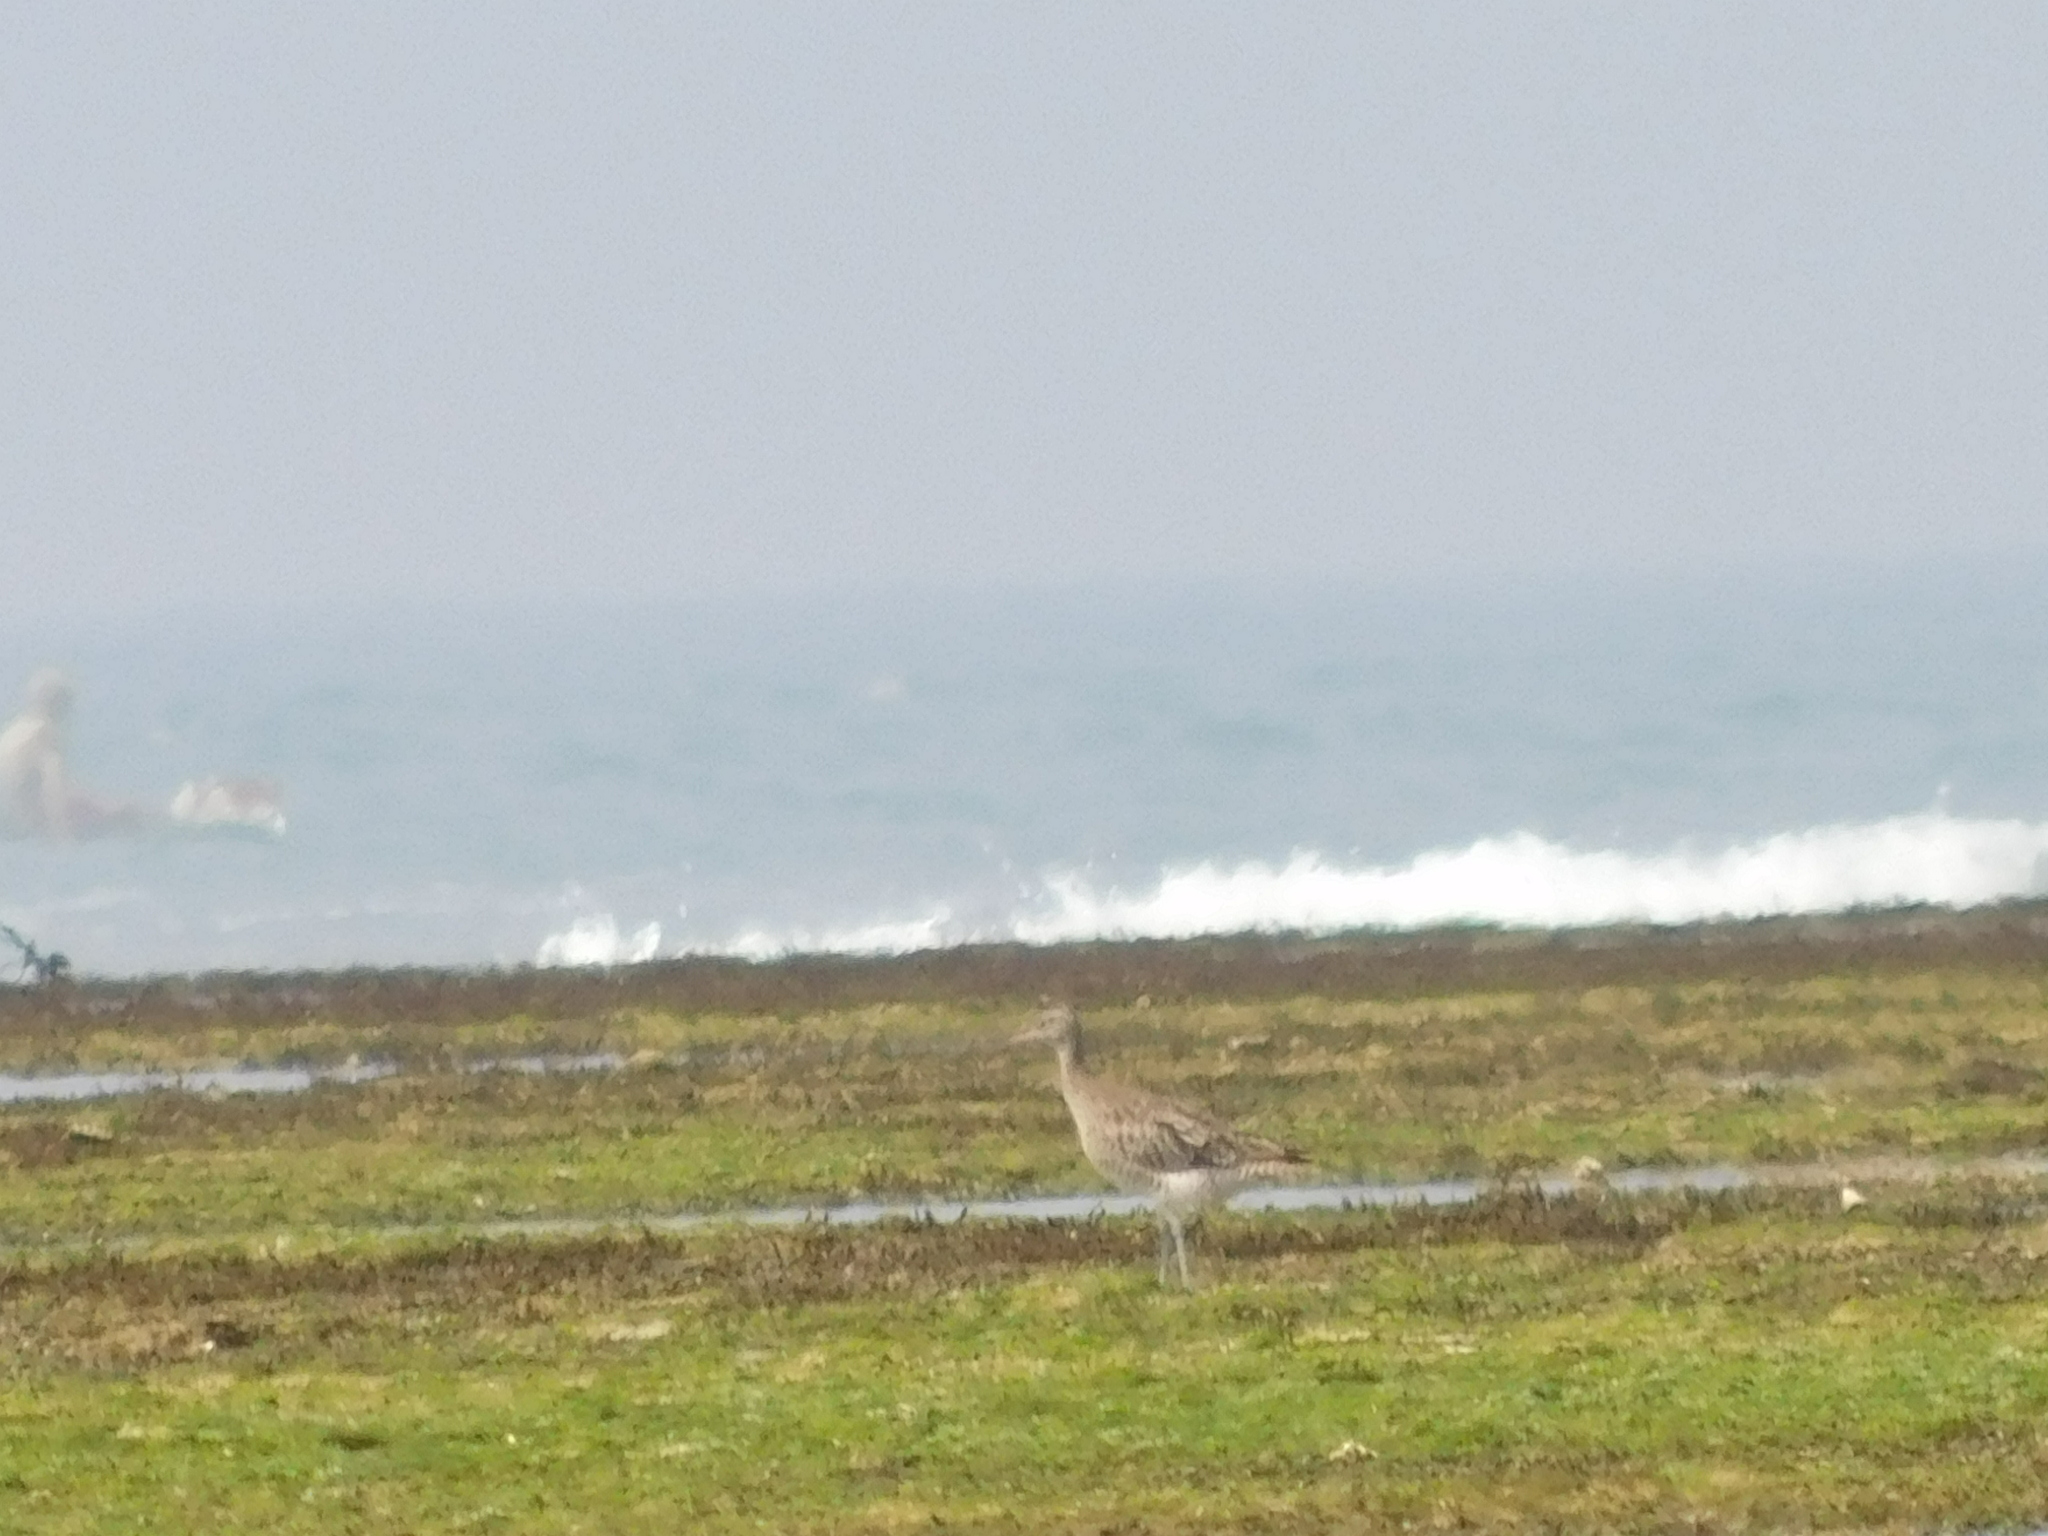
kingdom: Animalia
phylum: Chordata
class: Aves
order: Charadriiformes
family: Scolopacidae
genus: Numenius
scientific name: Numenius phaeopus
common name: Whimbrel
